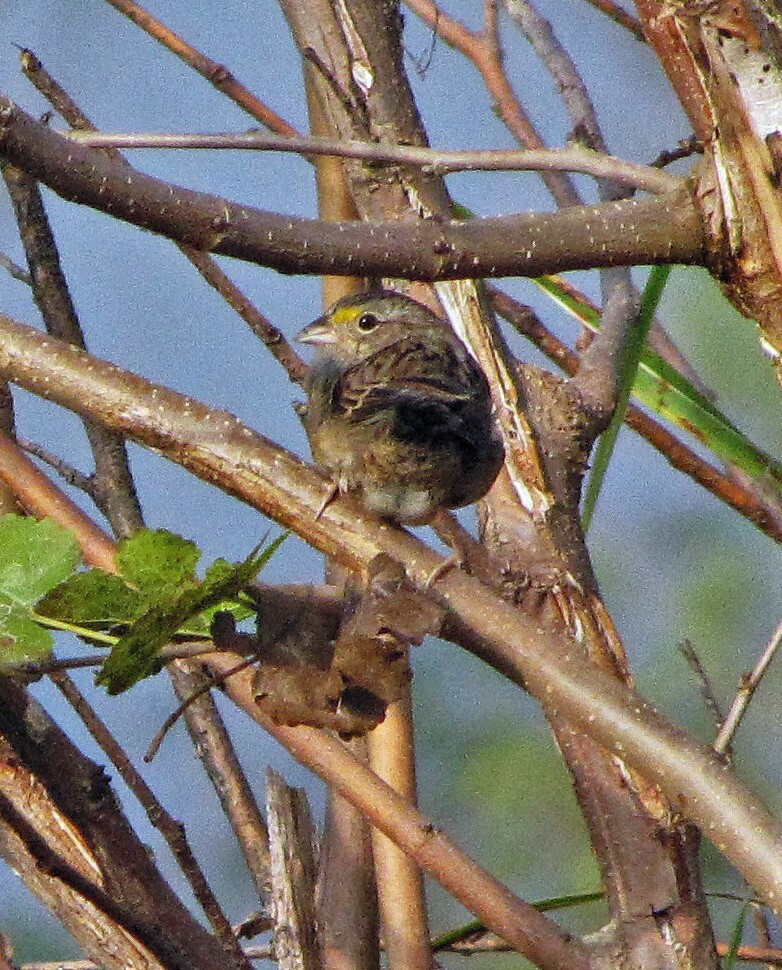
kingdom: Animalia
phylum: Chordata
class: Aves
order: Passeriformes
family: Passerellidae
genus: Ammodramus
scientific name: Ammodramus humeralis
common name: Grassland sparrow
